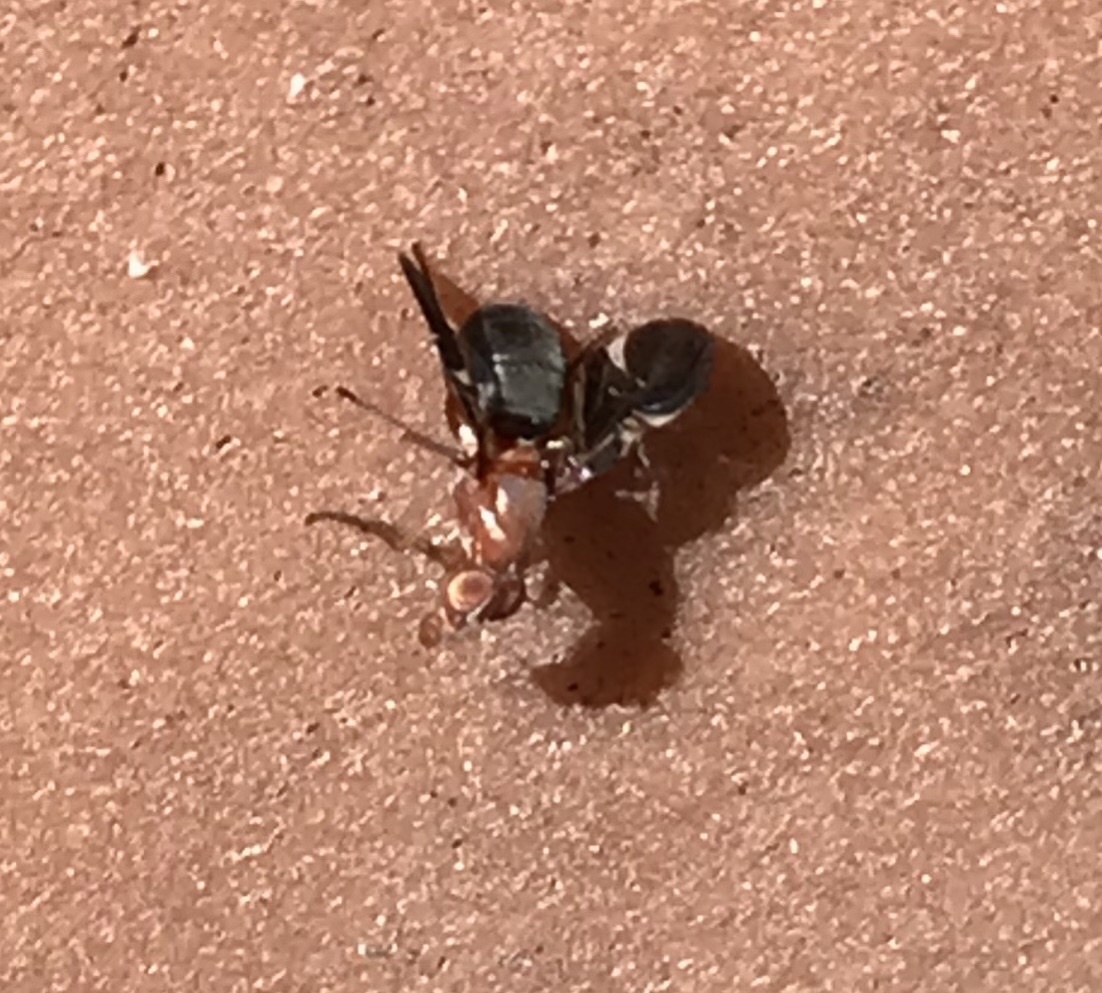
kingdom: Animalia
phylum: Arthropoda
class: Insecta
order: Diptera
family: Ulidiidae
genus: Delphinia
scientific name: Delphinia picta
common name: Common picture-winged fly
